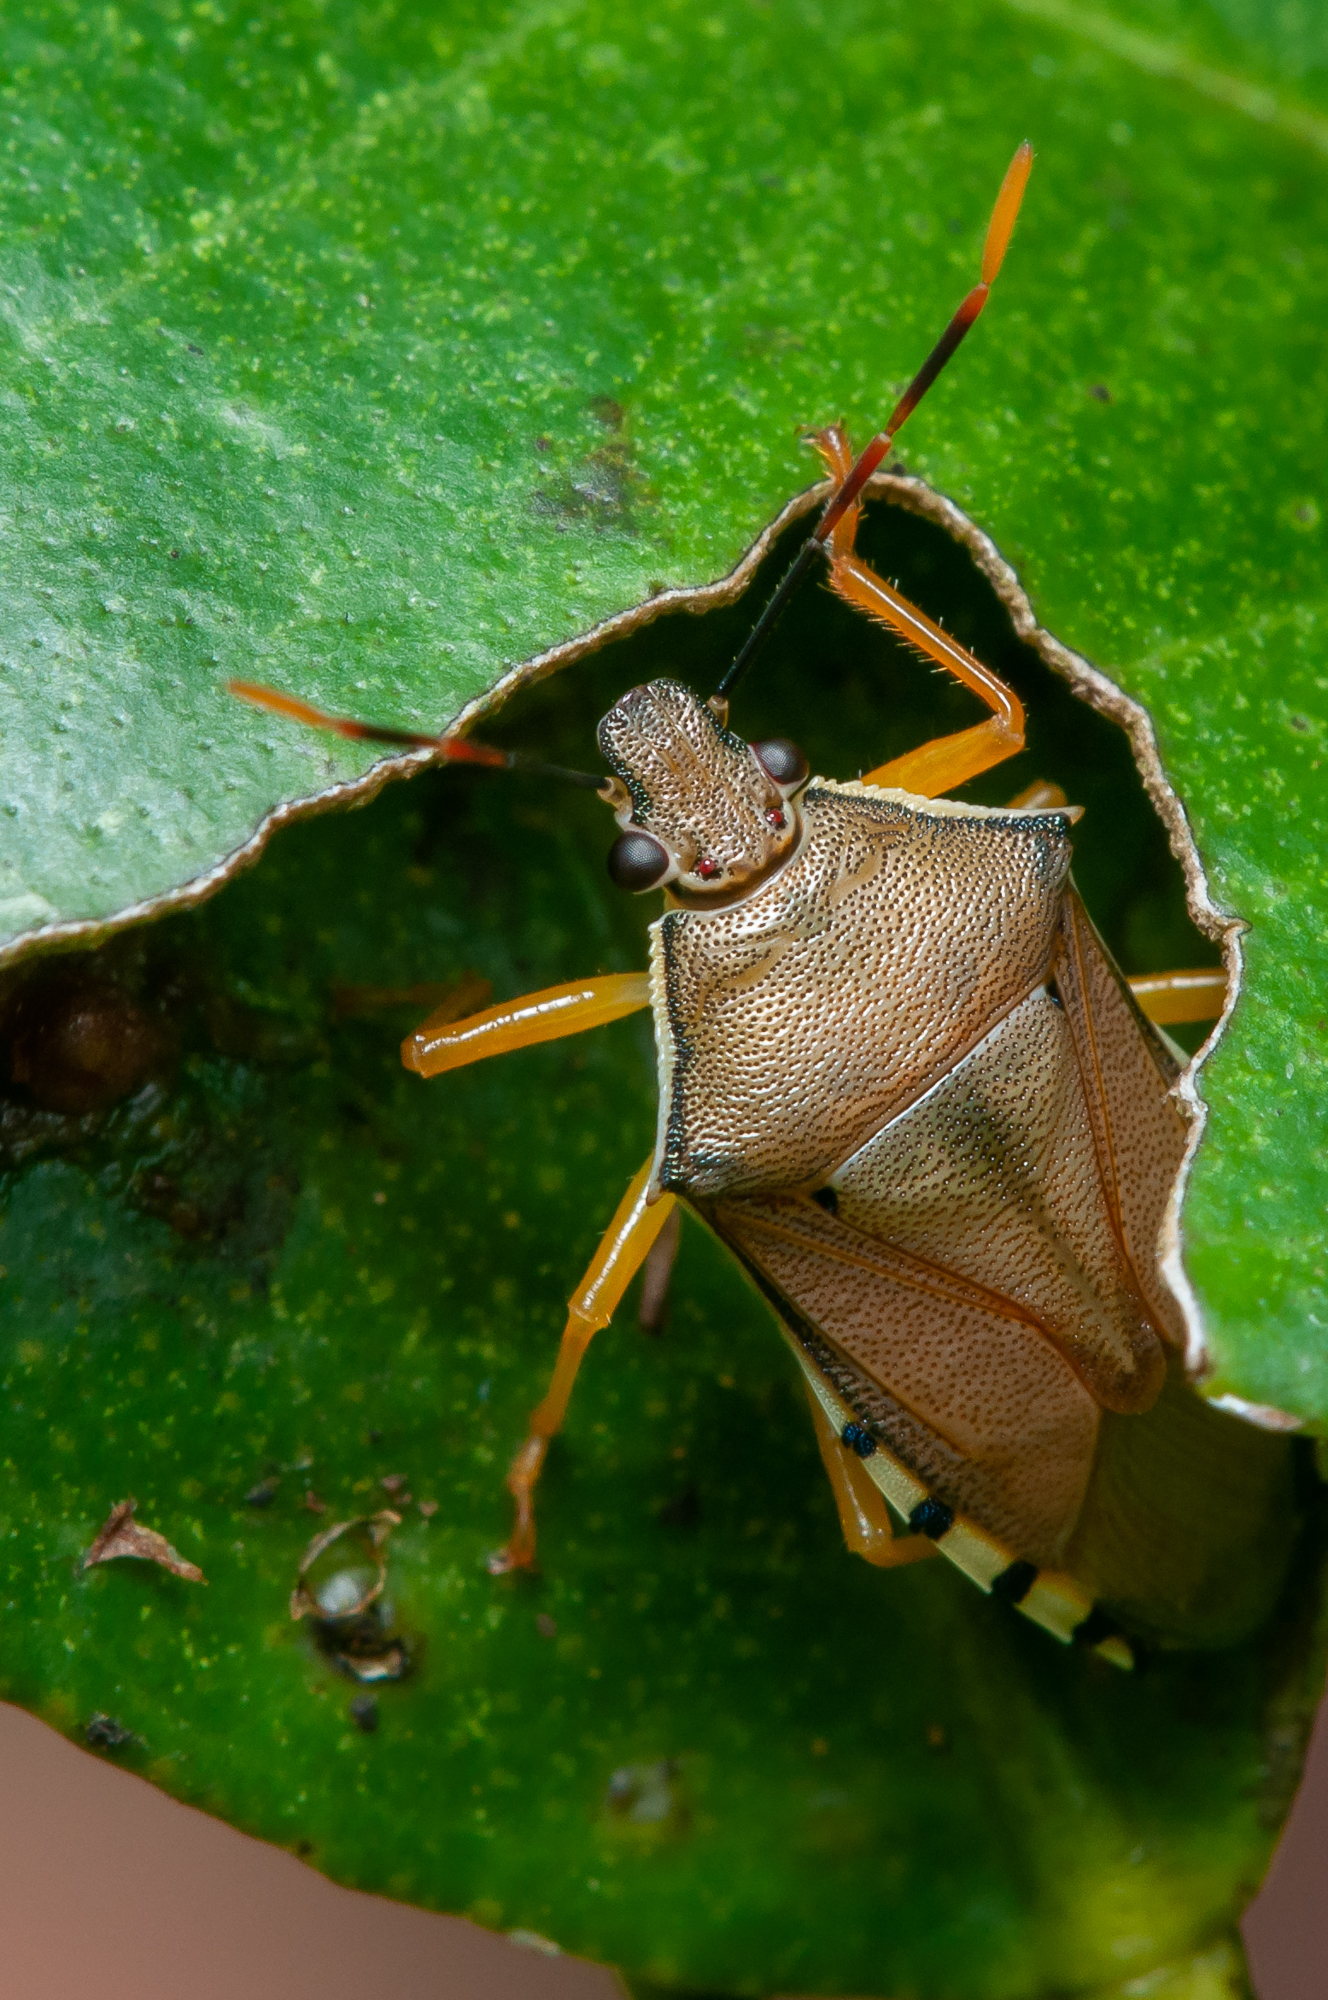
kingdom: Animalia
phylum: Arthropoda
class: Insecta
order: Hemiptera
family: Pentatomidae
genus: Supputius
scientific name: Supputius
